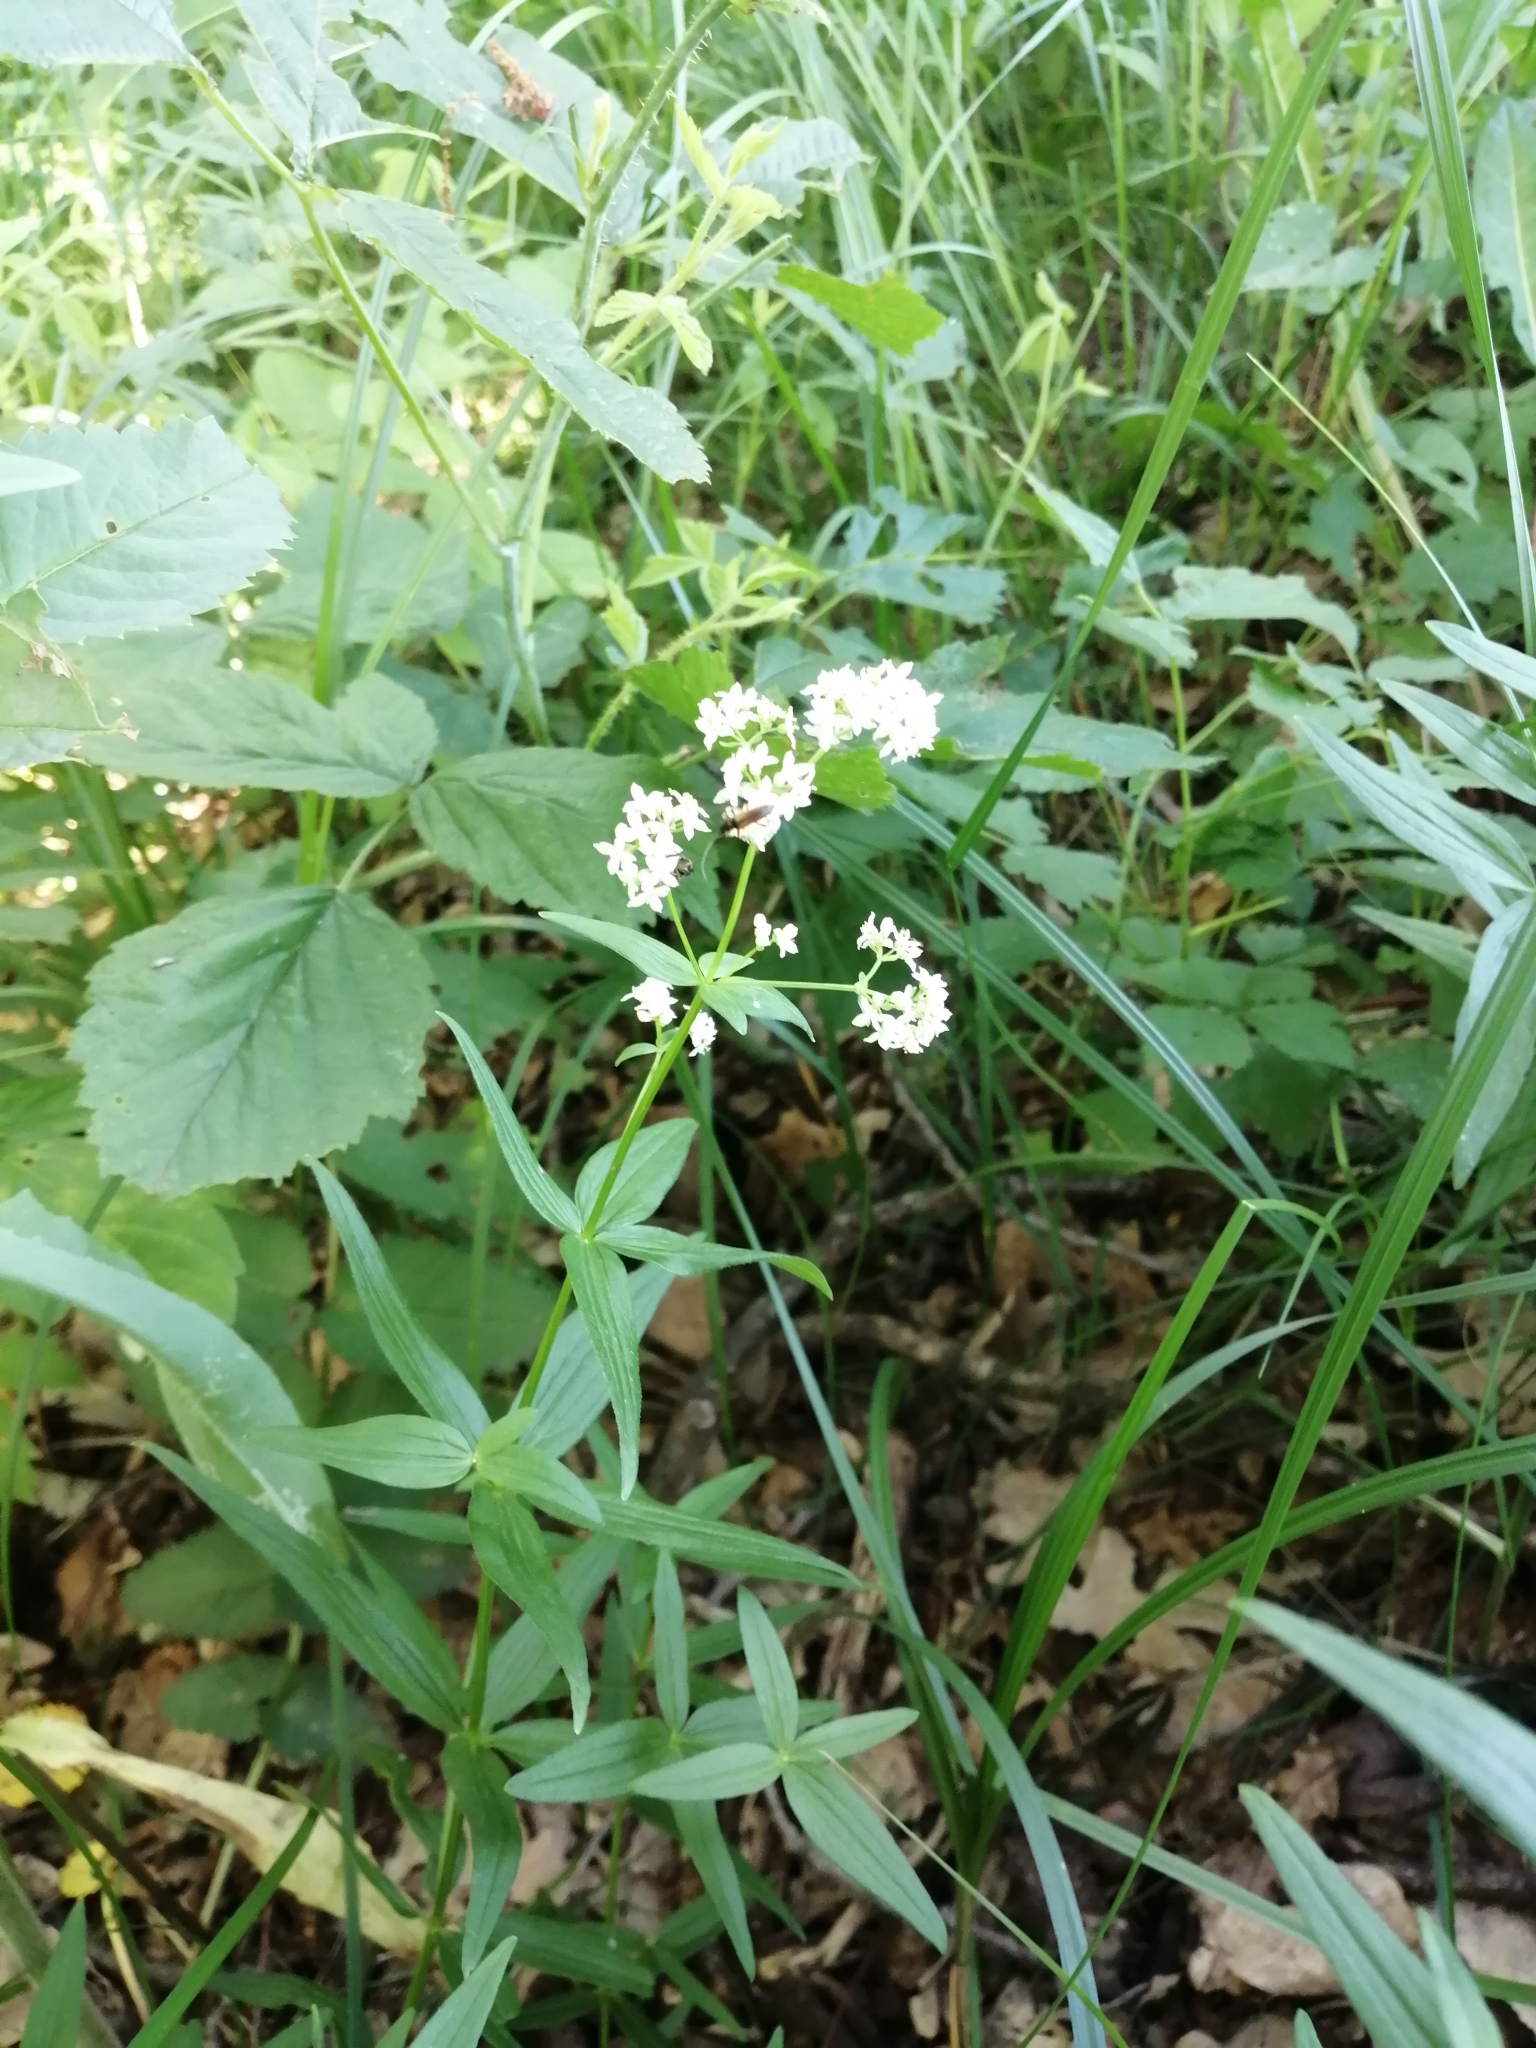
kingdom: Plantae
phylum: Tracheophyta
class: Magnoliopsida
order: Gentianales
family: Rubiaceae
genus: Galium
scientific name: Galium rubioides
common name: European bedstraw
